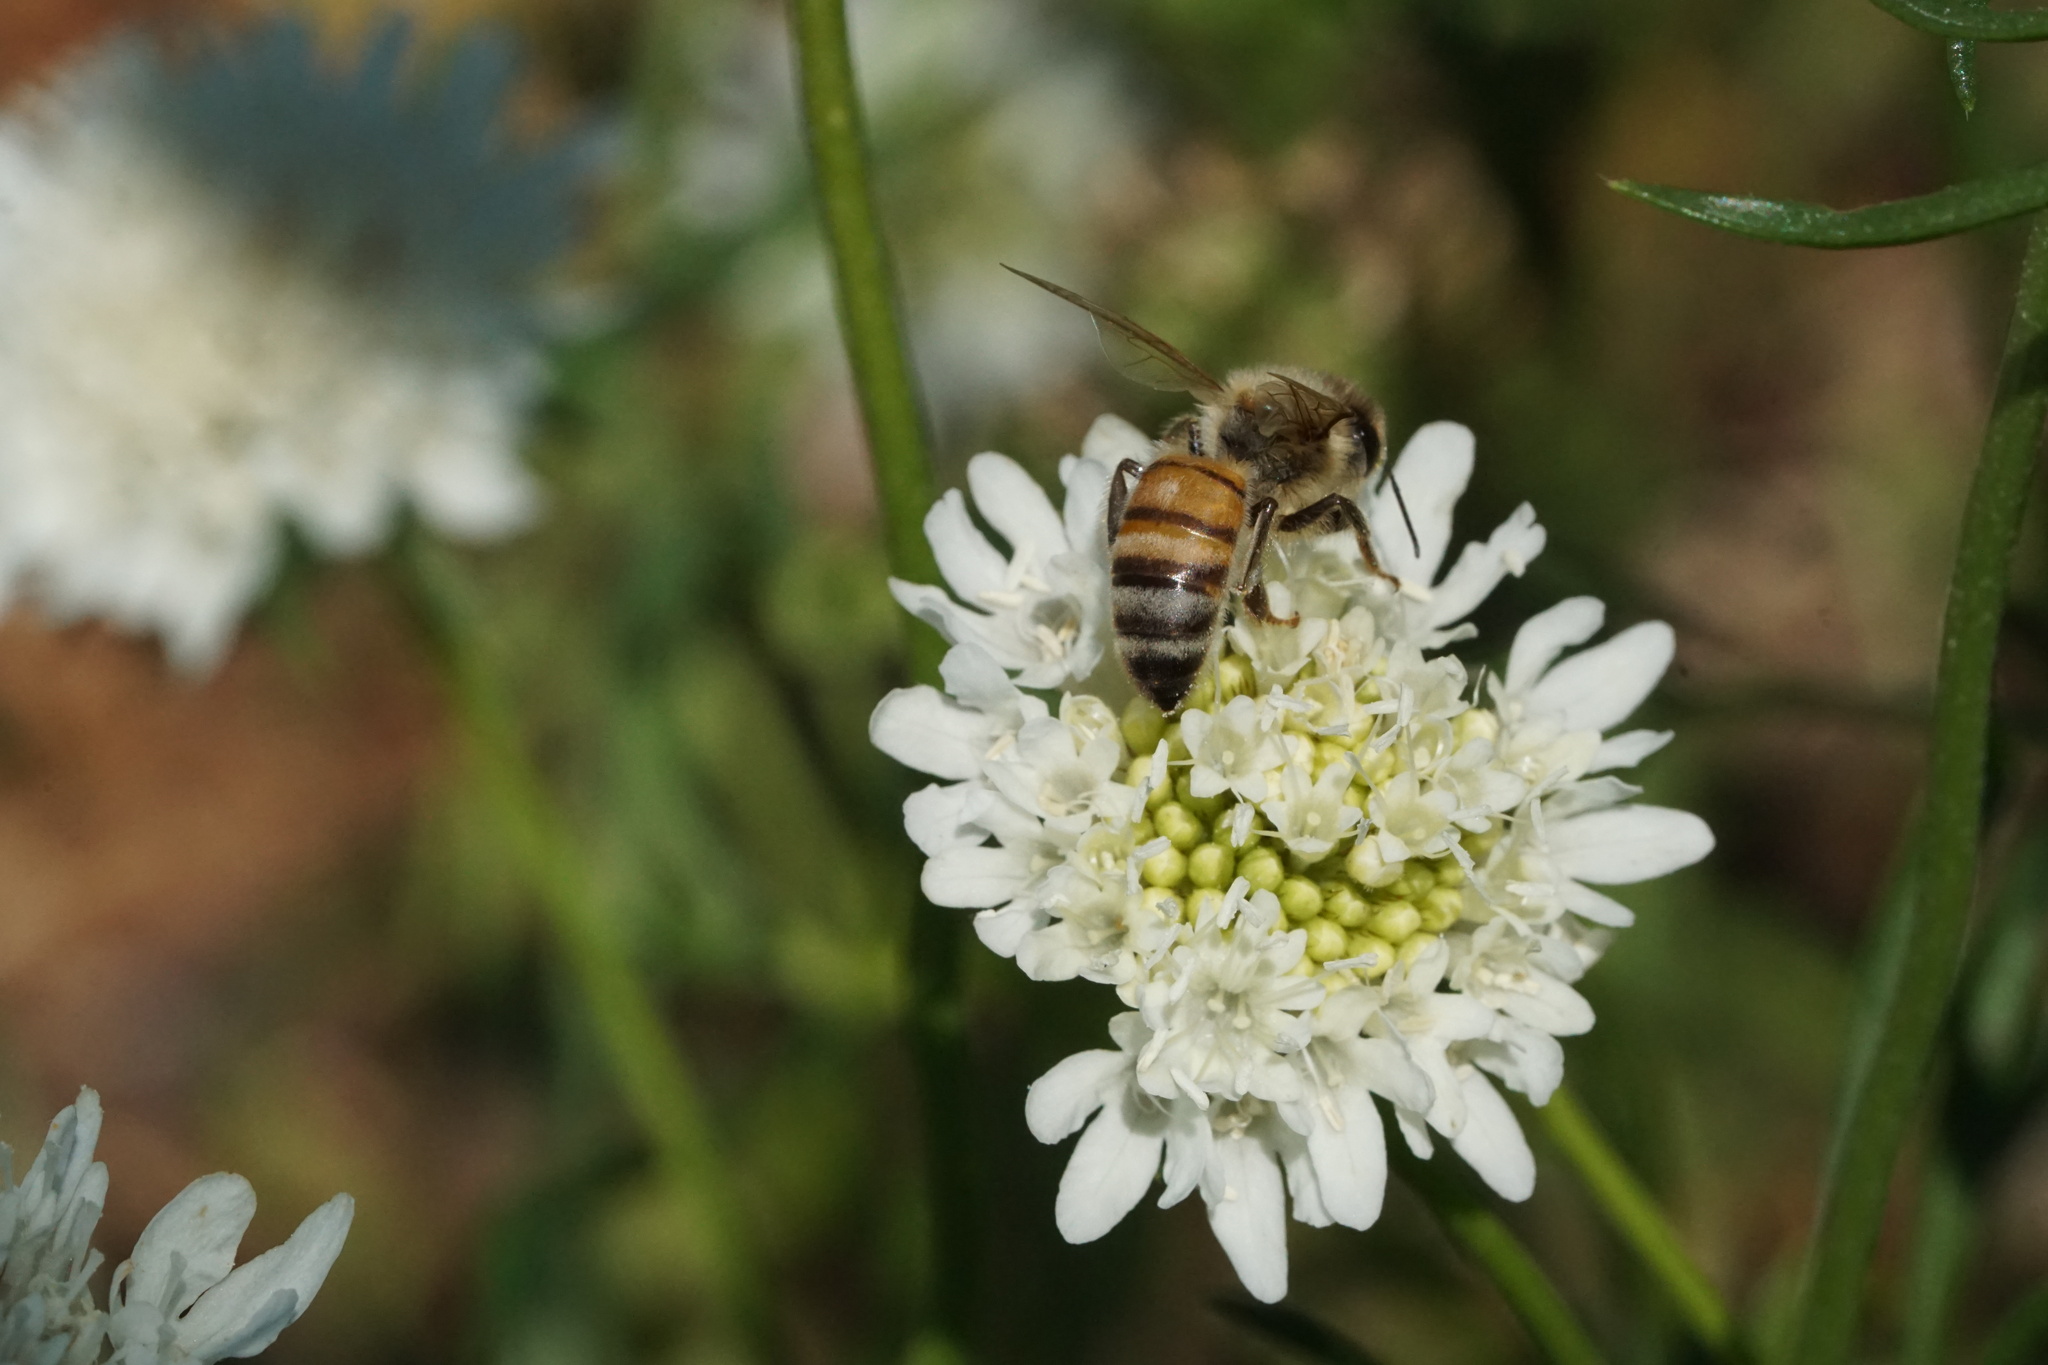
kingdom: Animalia
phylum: Arthropoda
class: Insecta
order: Hymenoptera
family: Apidae
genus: Apis
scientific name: Apis mellifera
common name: Honey bee
